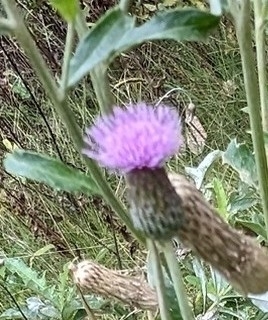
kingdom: Plantae
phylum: Tracheophyta
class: Magnoliopsida
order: Asterales
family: Asteraceae
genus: Cirsium
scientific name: Cirsium arvense
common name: Creeping thistle
